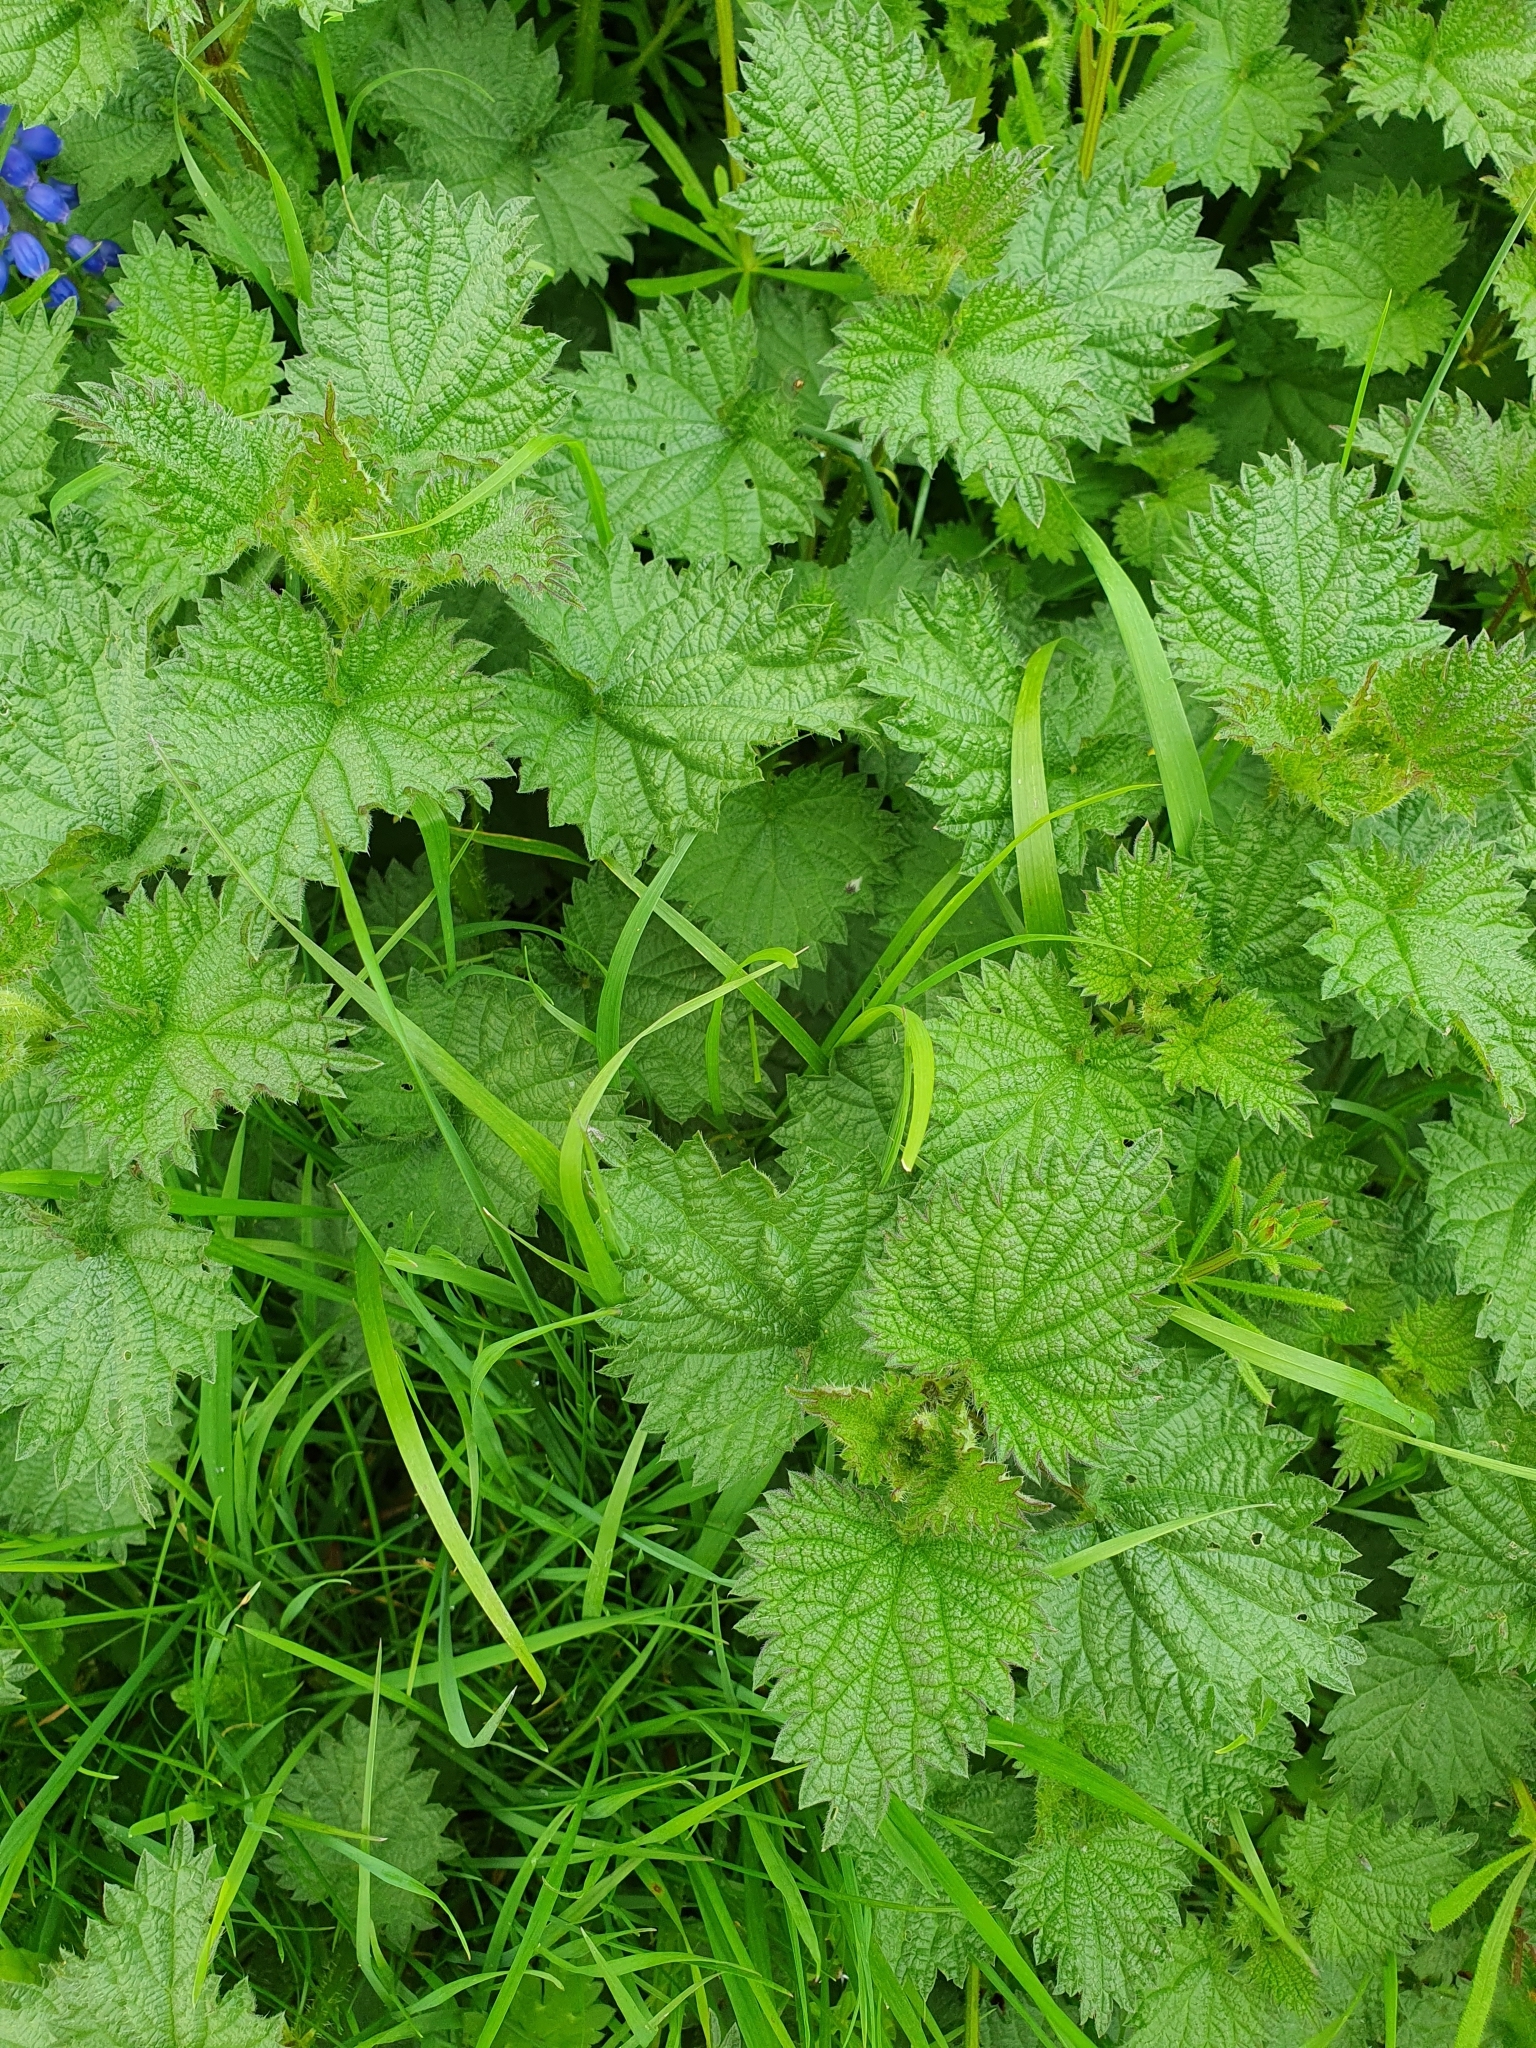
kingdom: Plantae
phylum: Tracheophyta
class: Magnoliopsida
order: Rosales
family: Urticaceae
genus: Urtica
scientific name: Urtica dioica
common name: Common nettle
